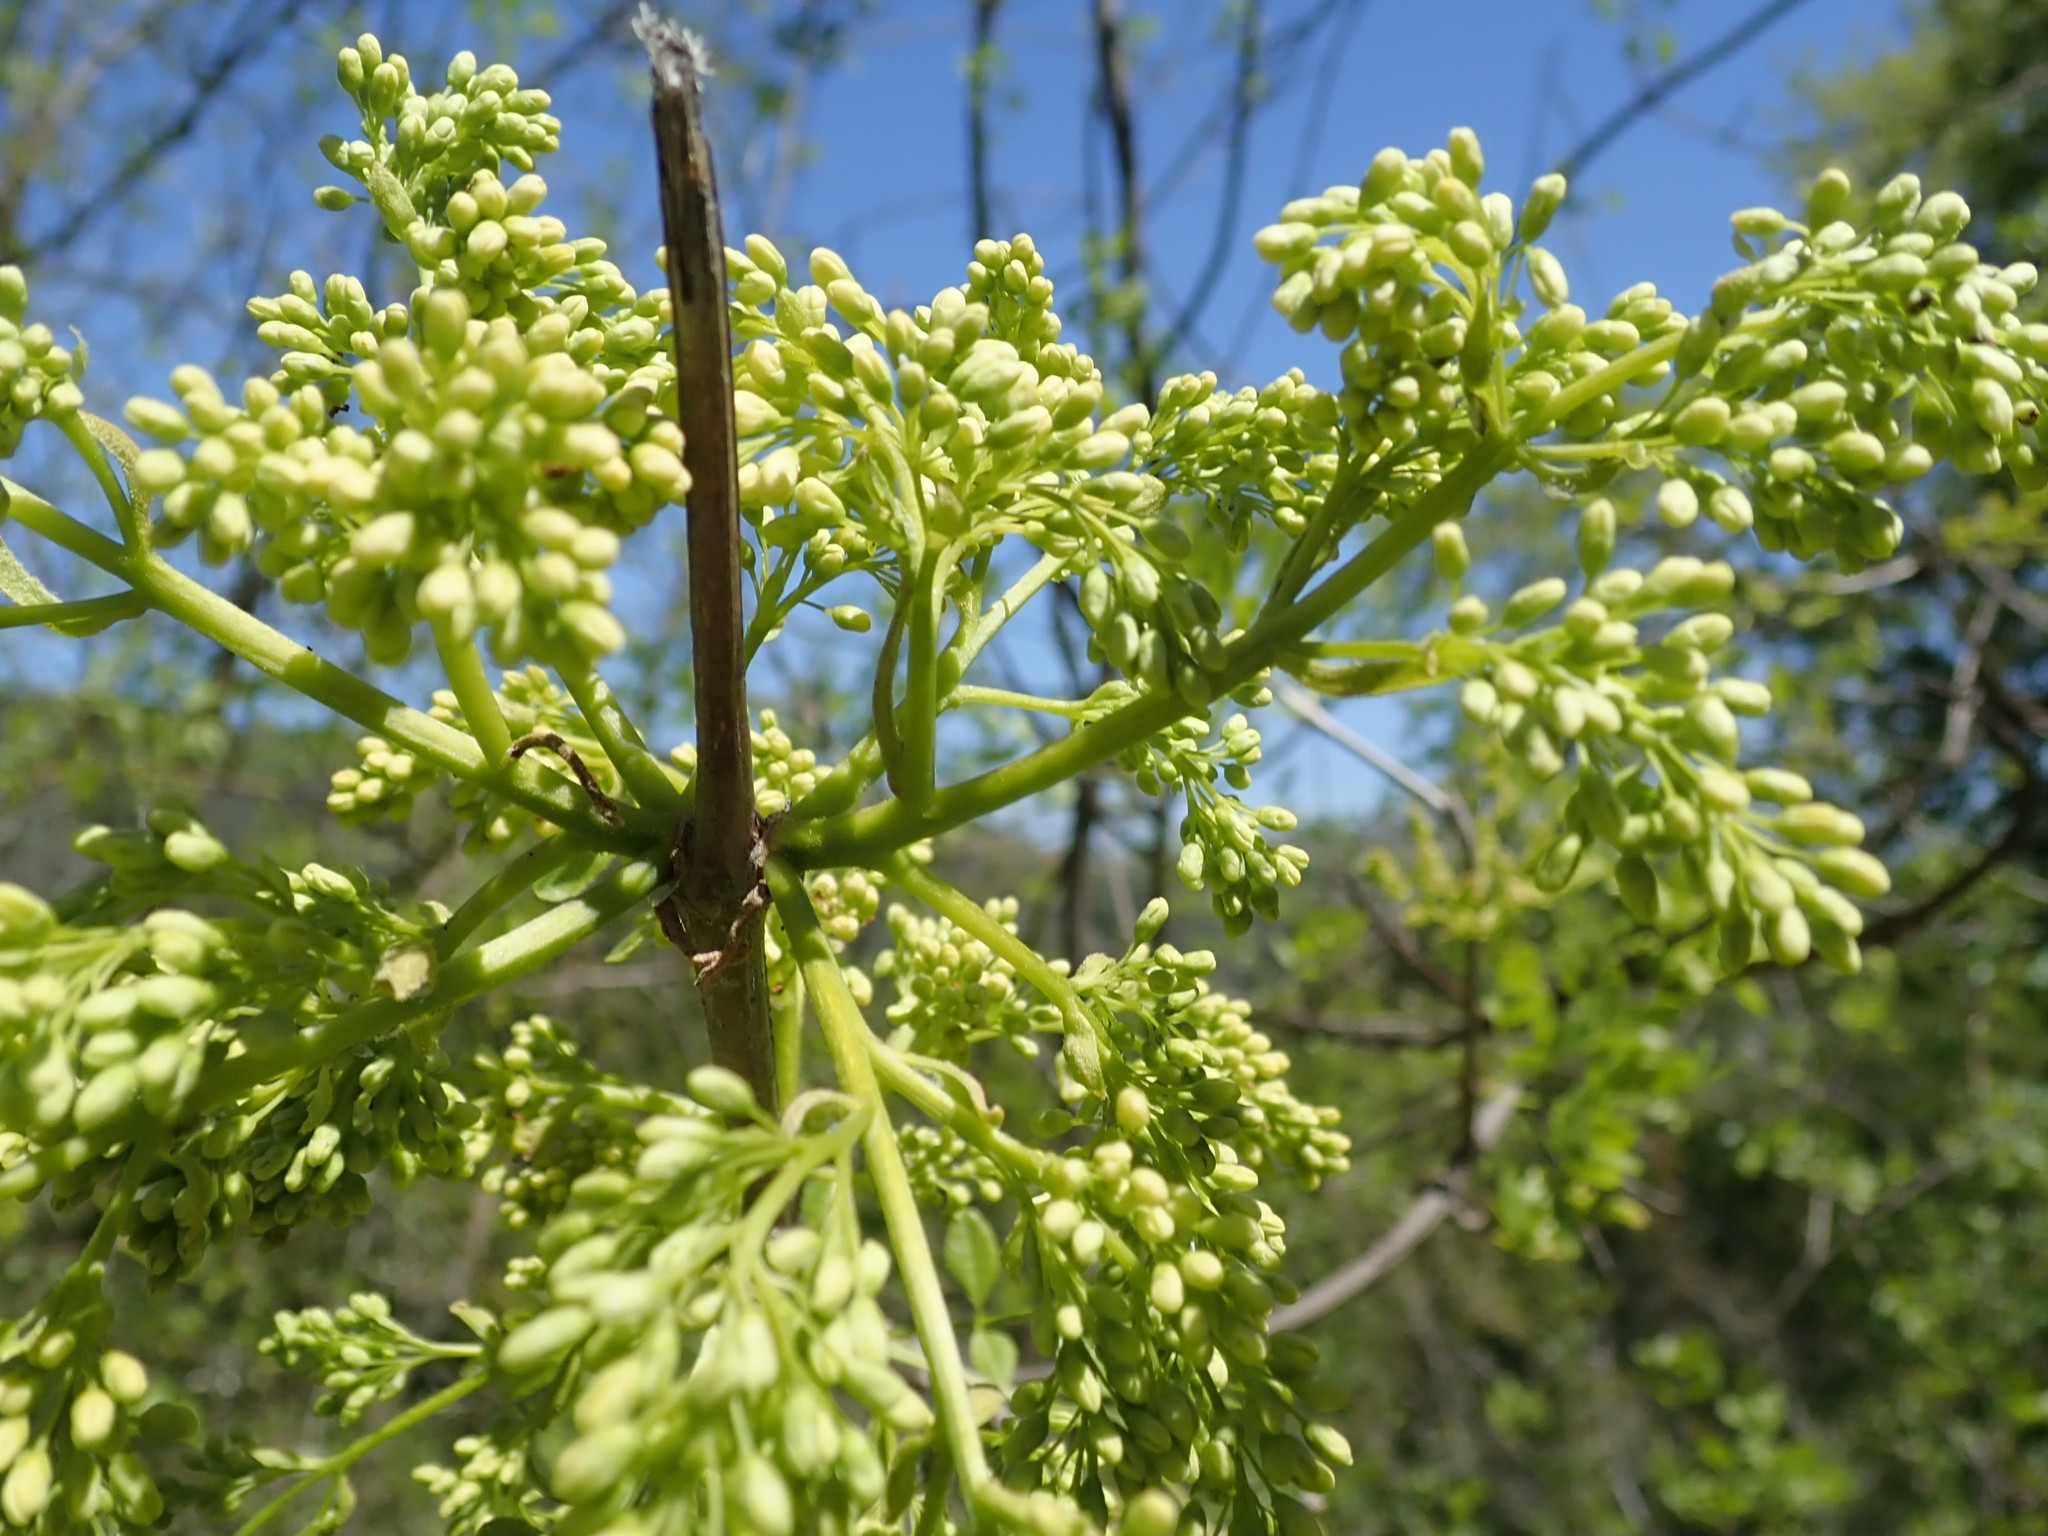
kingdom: Plantae
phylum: Tracheophyta
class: Magnoliopsida
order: Lamiales
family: Oleaceae
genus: Fraxinus
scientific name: Fraxinus dipetala
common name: California ash
